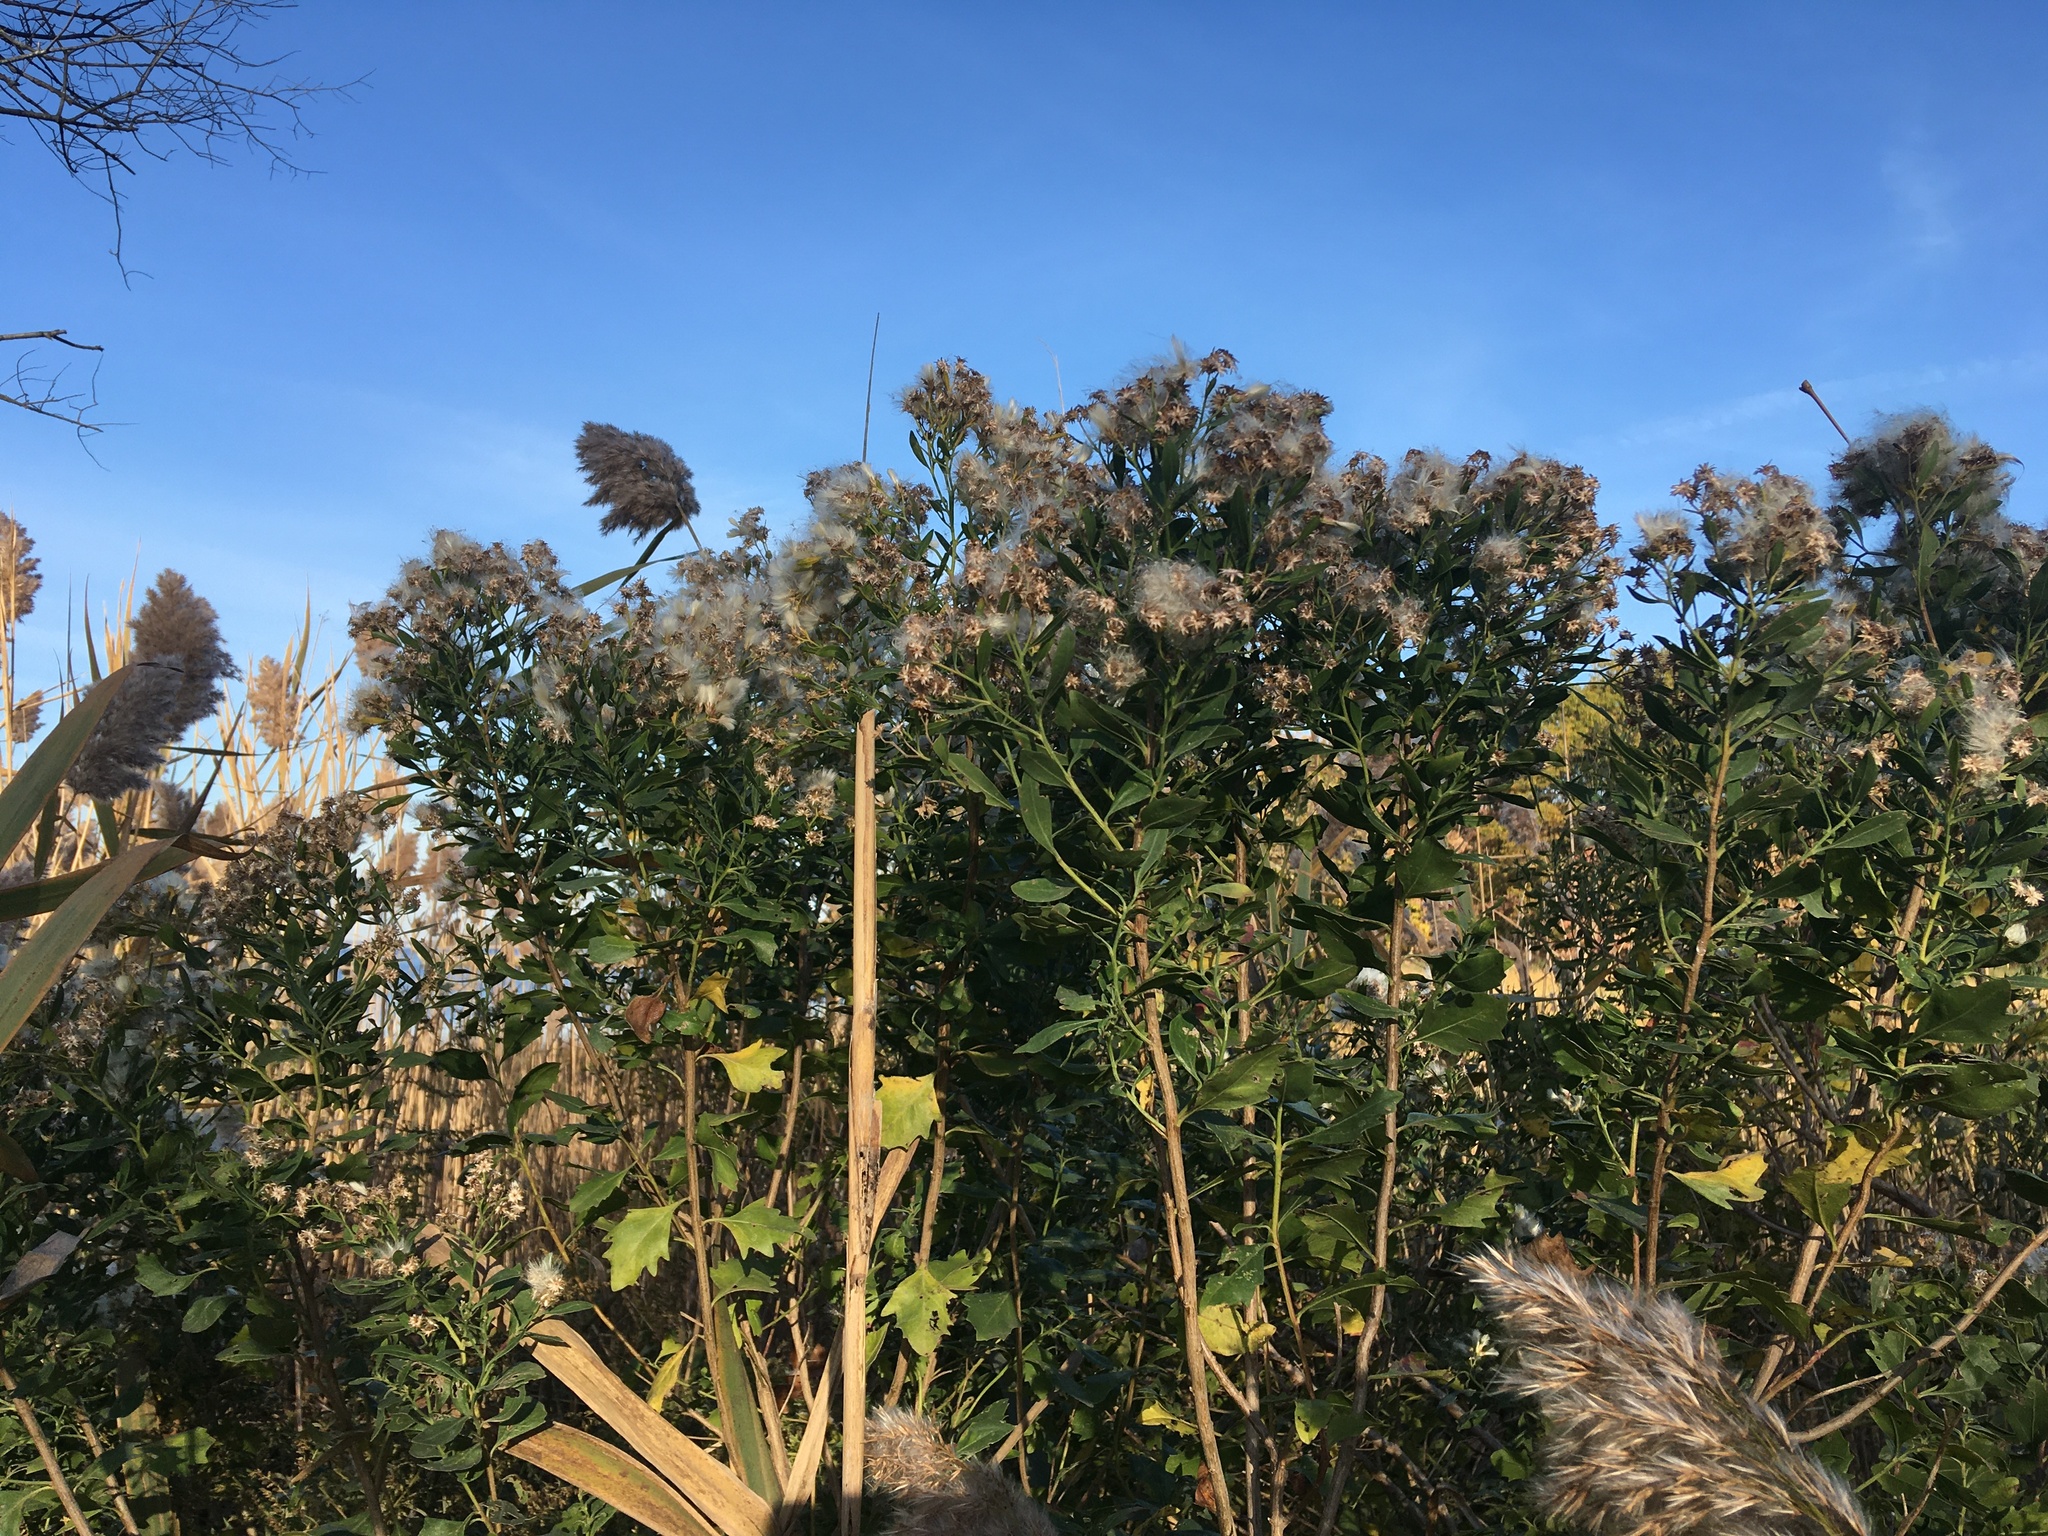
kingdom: Plantae
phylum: Tracheophyta
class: Magnoliopsida
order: Asterales
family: Asteraceae
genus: Baccharis
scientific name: Baccharis halimifolia
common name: Eastern baccharis
